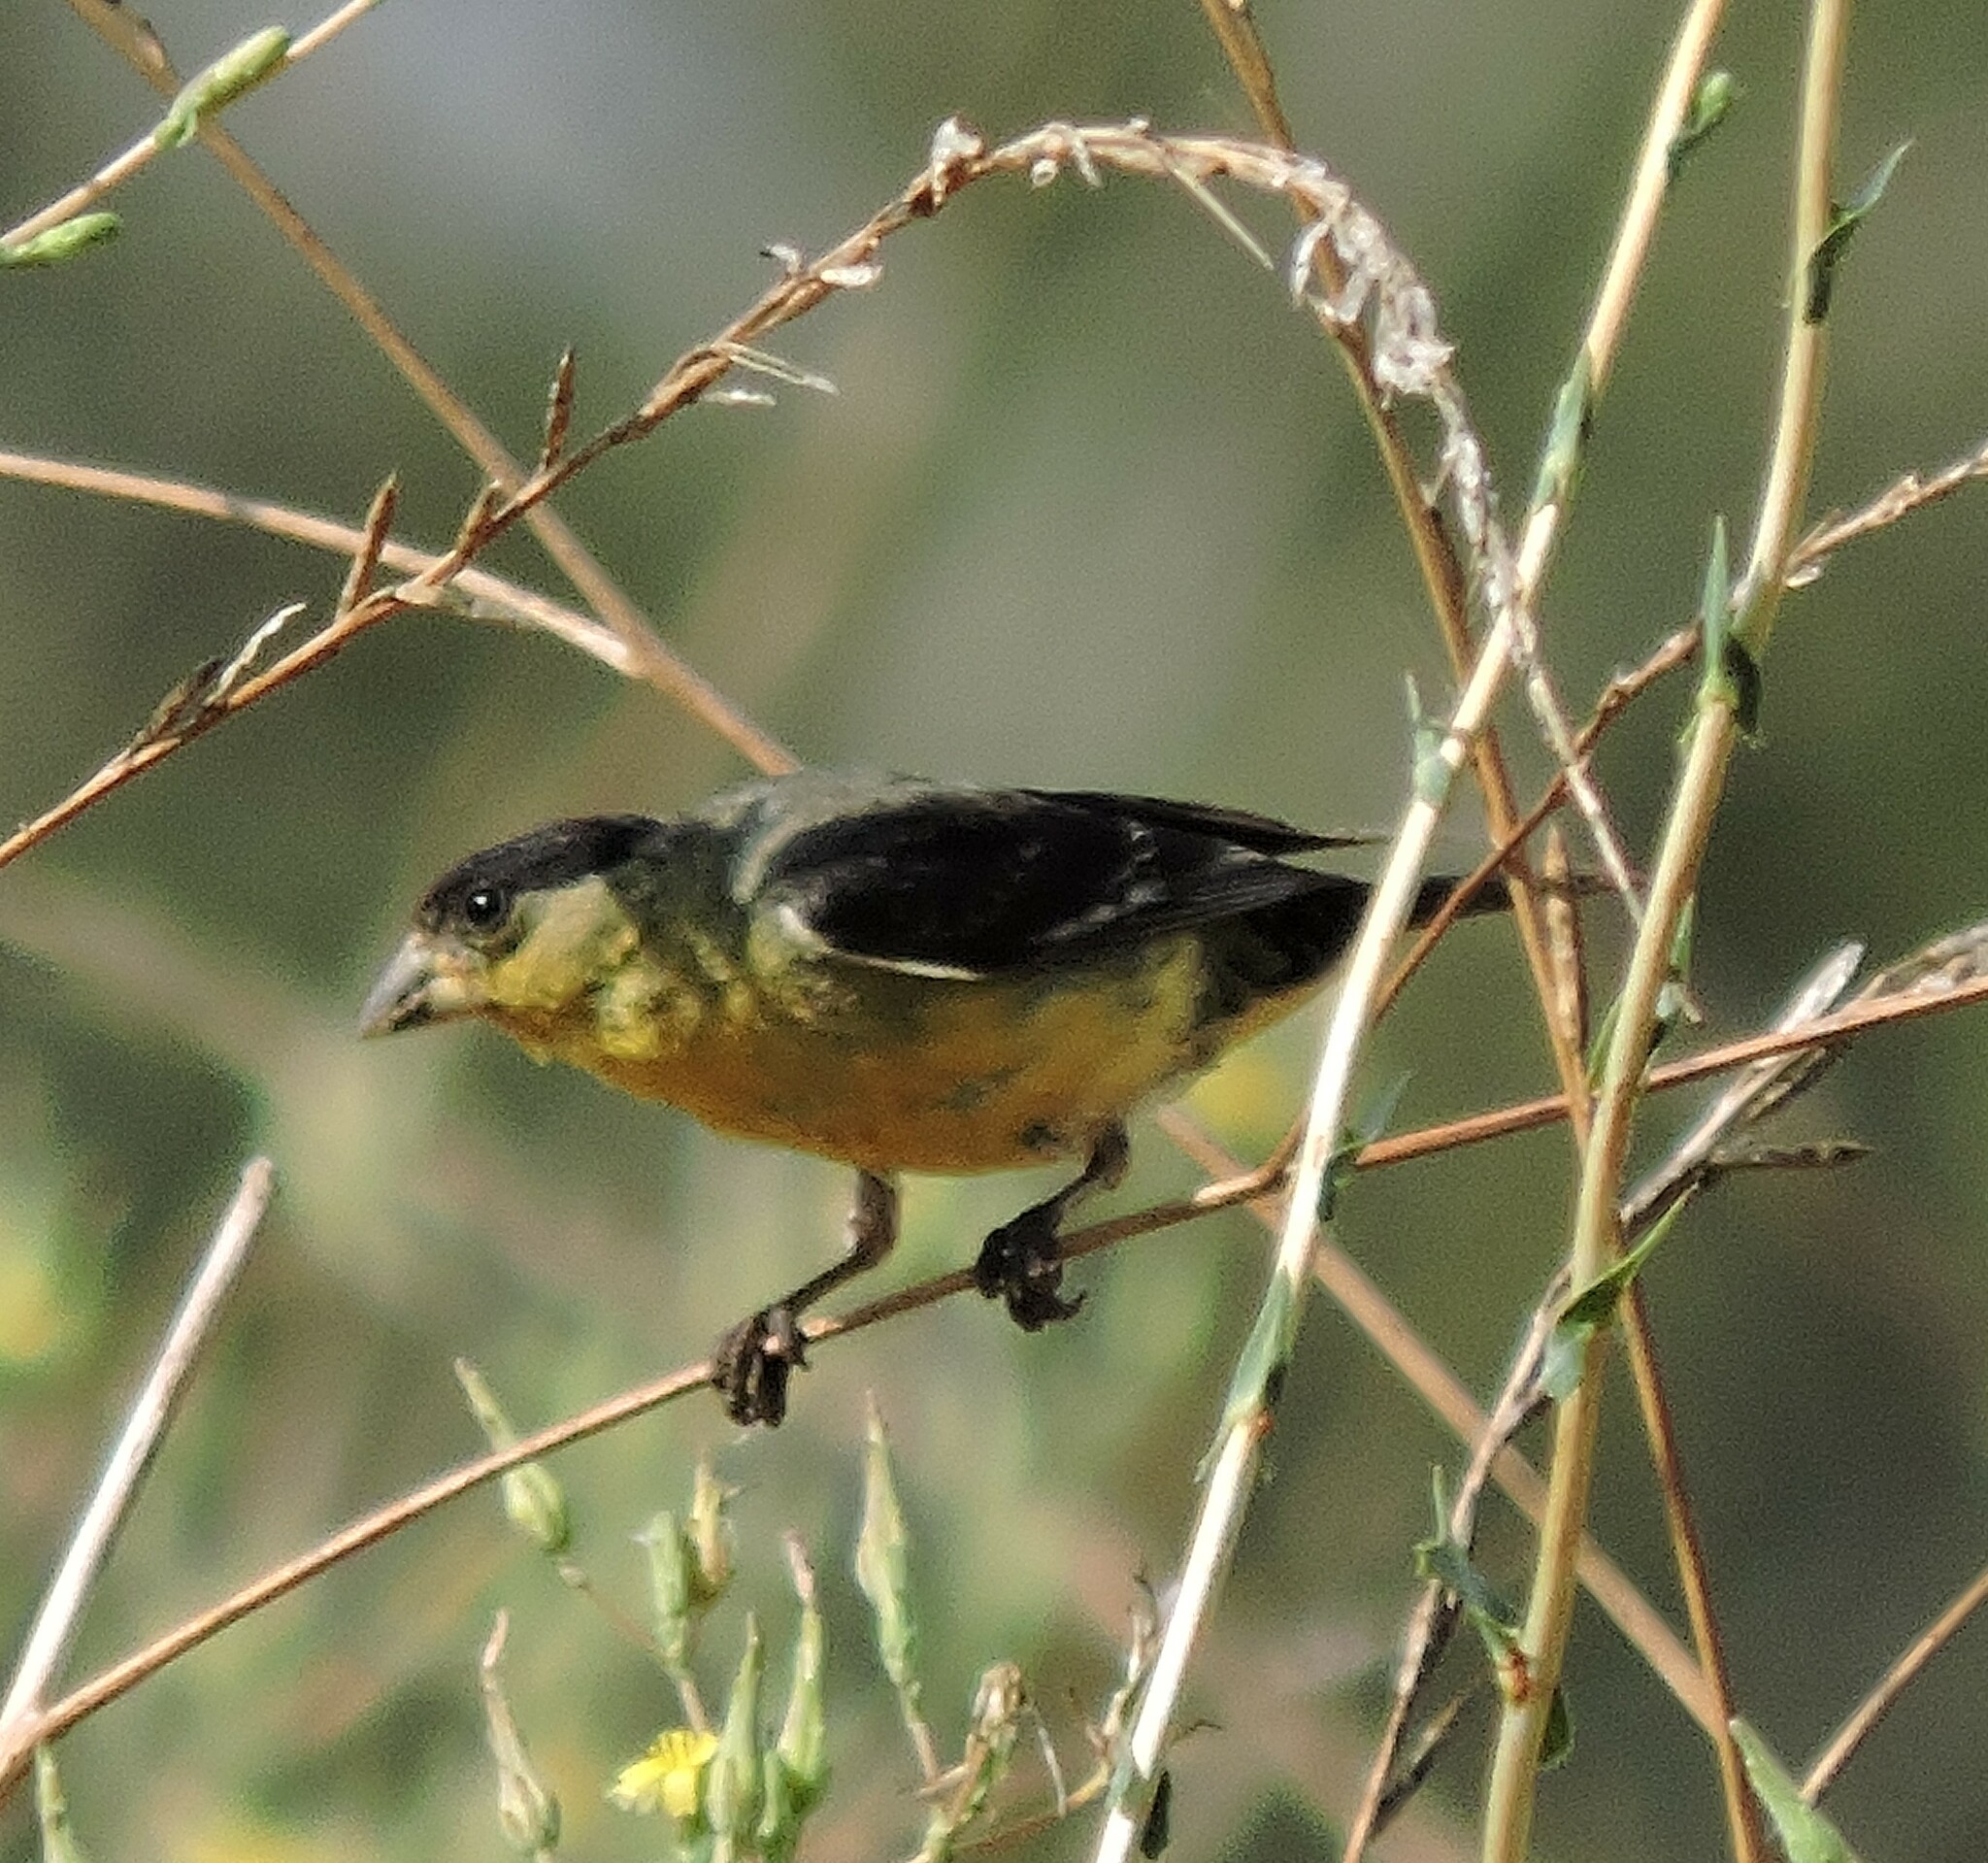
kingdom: Animalia
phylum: Chordata
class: Aves
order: Passeriformes
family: Fringillidae
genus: Spinus
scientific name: Spinus psaltria
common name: Lesser goldfinch
